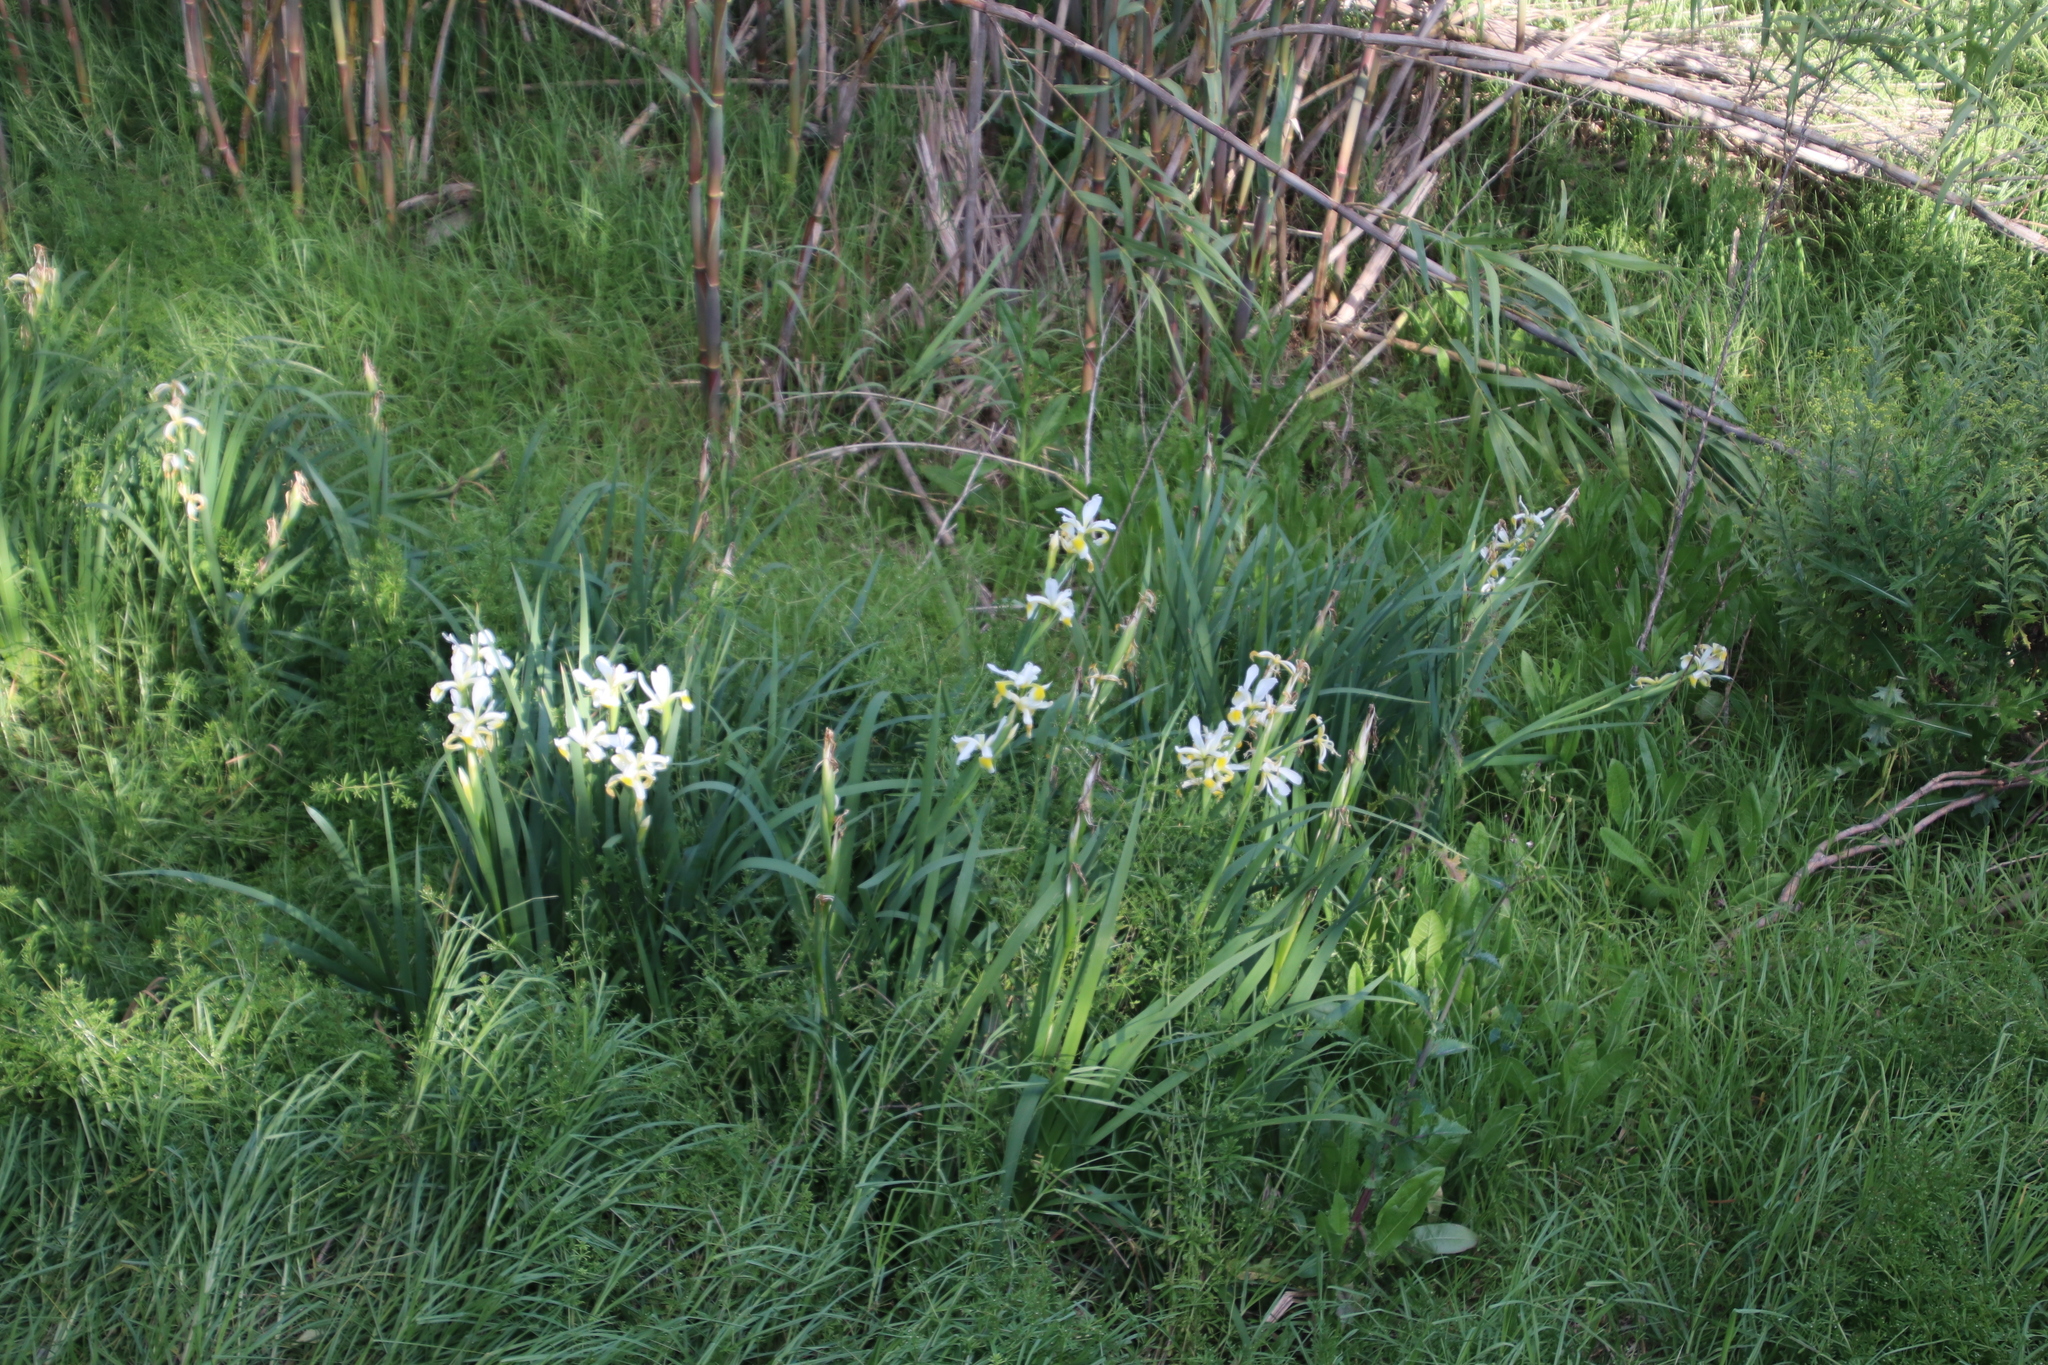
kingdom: Plantae
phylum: Tracheophyta
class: Liliopsida
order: Asparagales
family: Iridaceae
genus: Iris
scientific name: Iris orientalis
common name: Turkish iris
